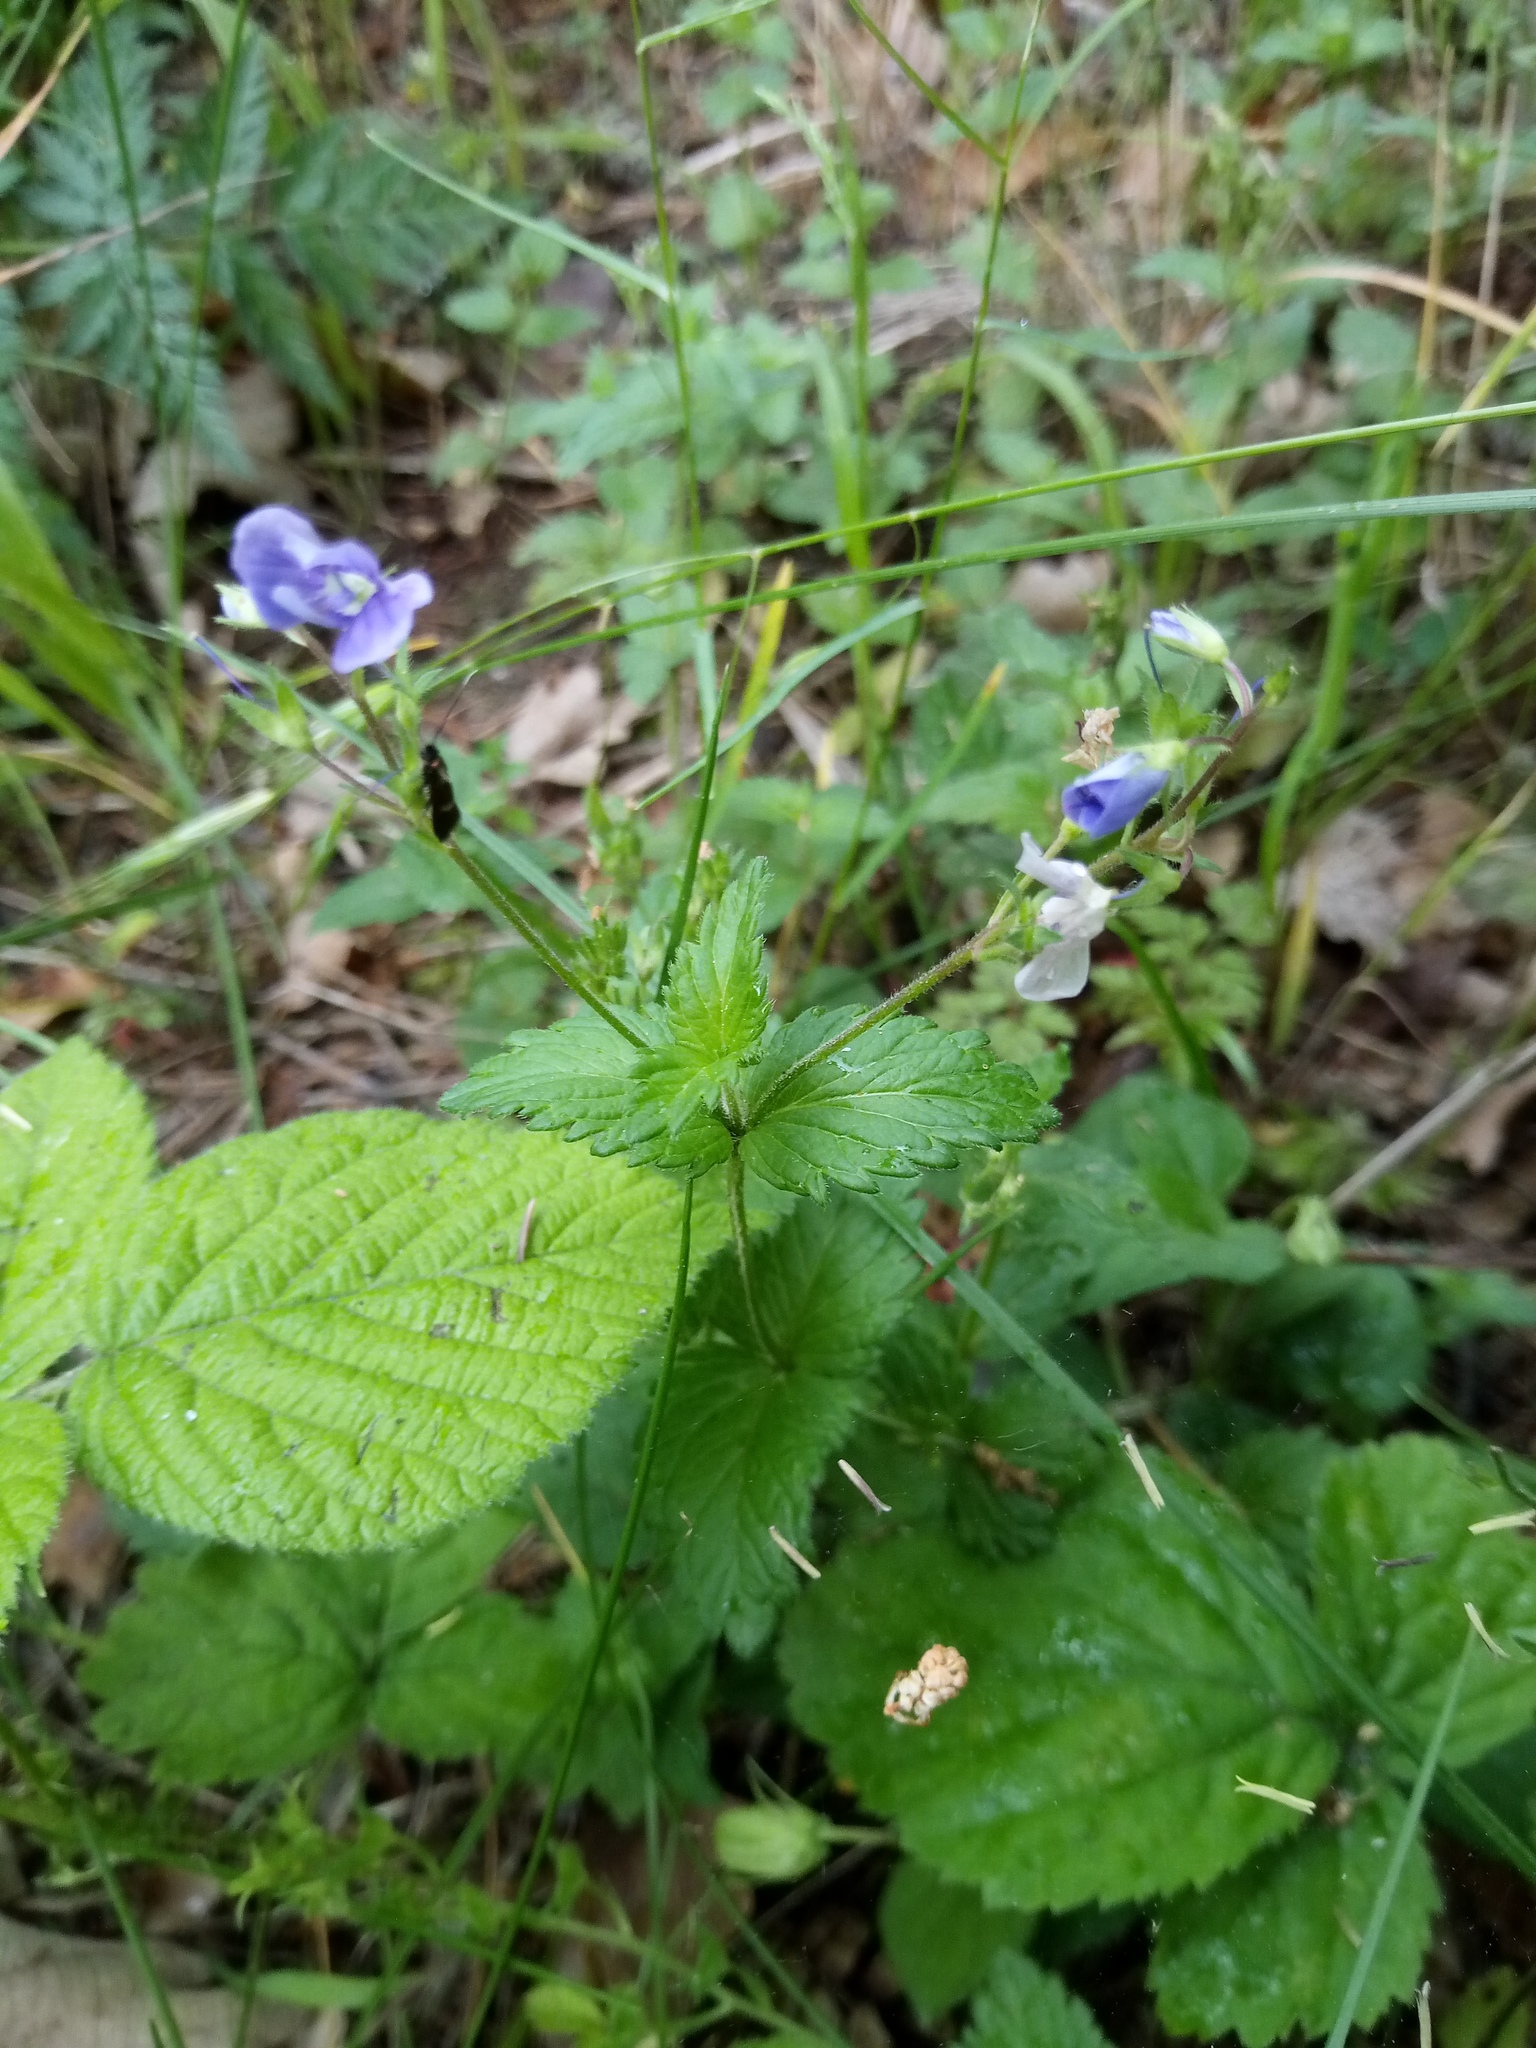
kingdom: Plantae
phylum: Tracheophyta
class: Magnoliopsida
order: Lamiales
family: Plantaginaceae
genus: Veronica
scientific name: Veronica chamaedrys
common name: Germander speedwell
